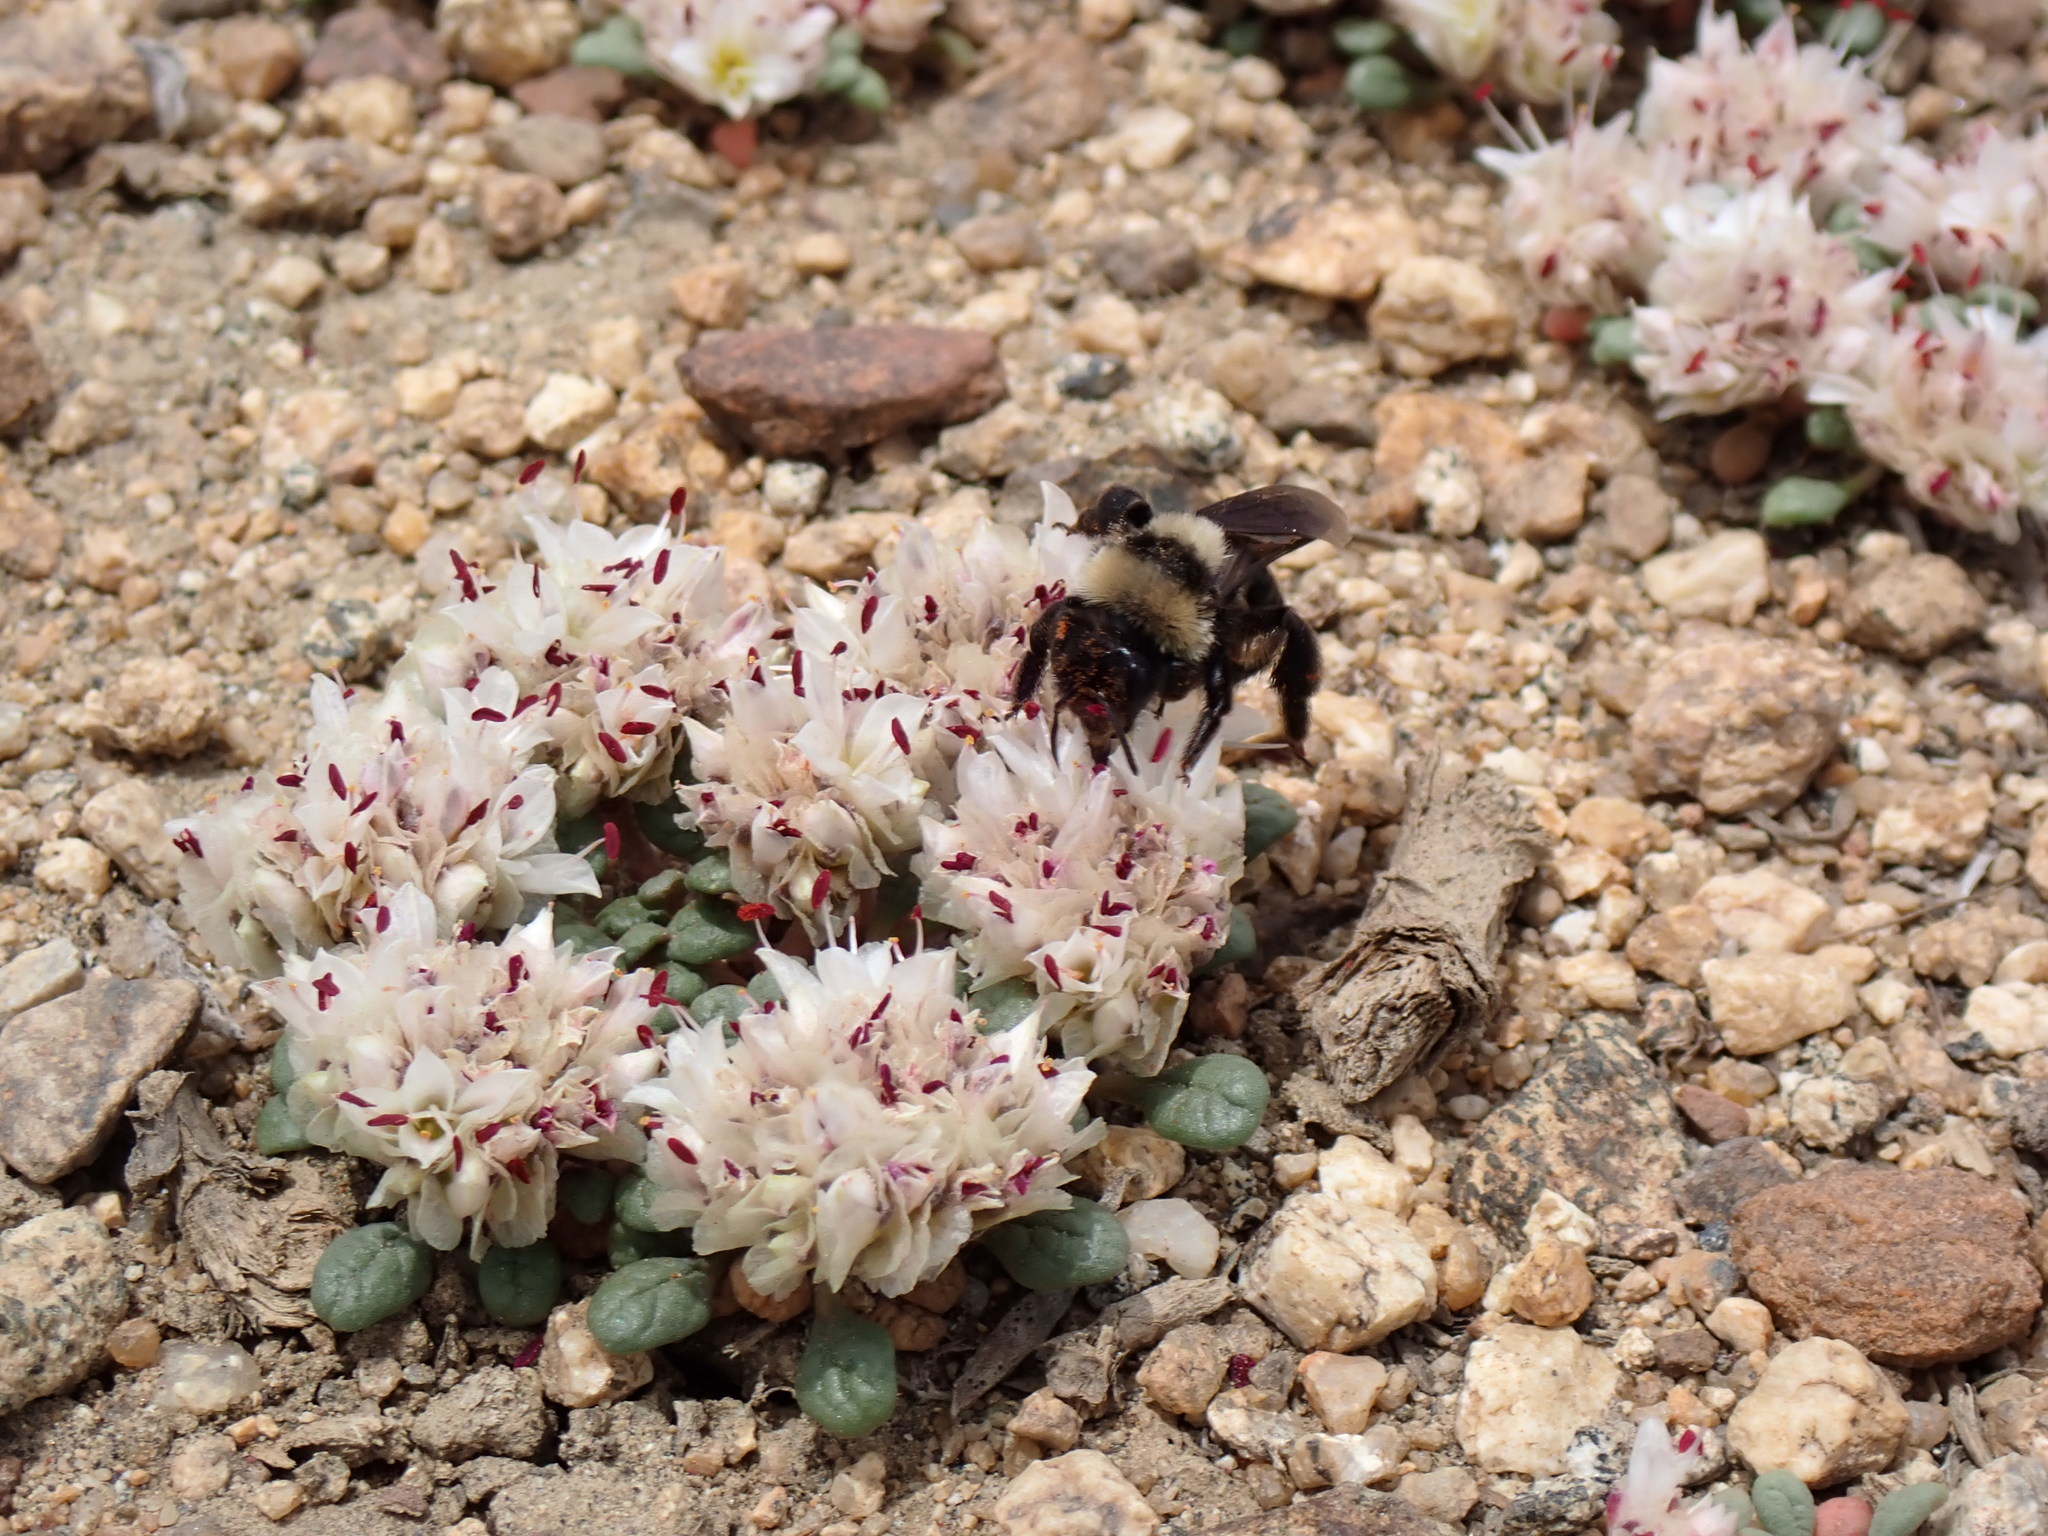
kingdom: Animalia
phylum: Arthropoda
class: Insecta
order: Hymenoptera
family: Andrenidae
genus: Andrena
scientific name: Andrena
